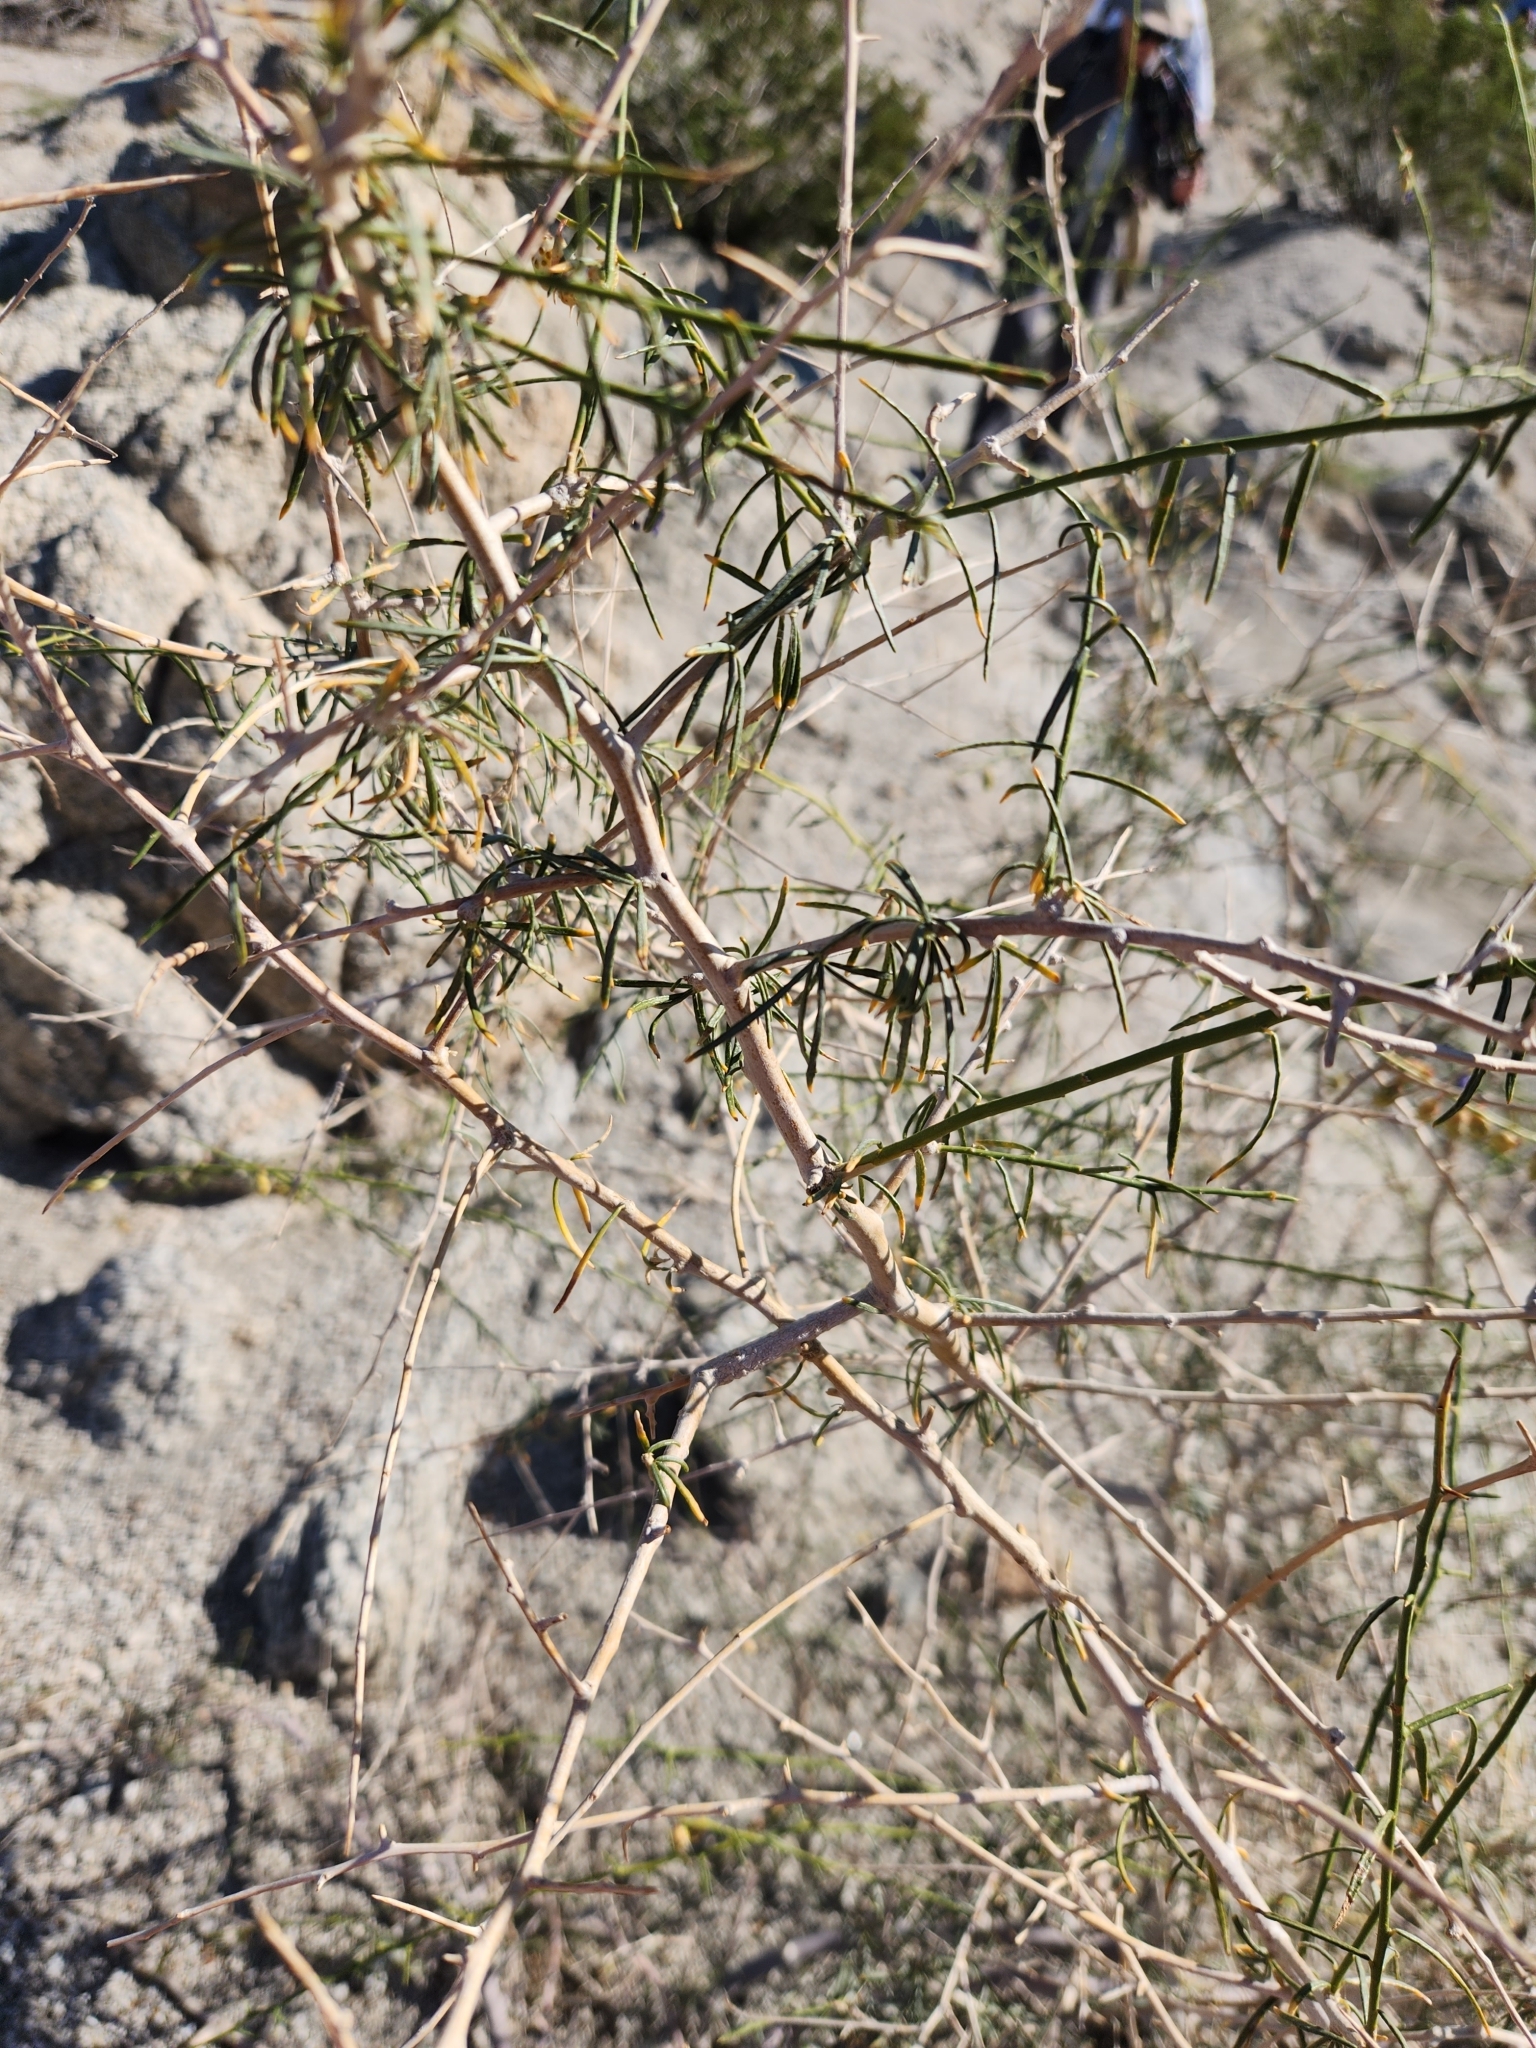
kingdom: Plantae
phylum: Tracheophyta
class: Magnoliopsida
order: Fabales
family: Fabaceae
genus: Psorothamnus
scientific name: Psorothamnus schottii
